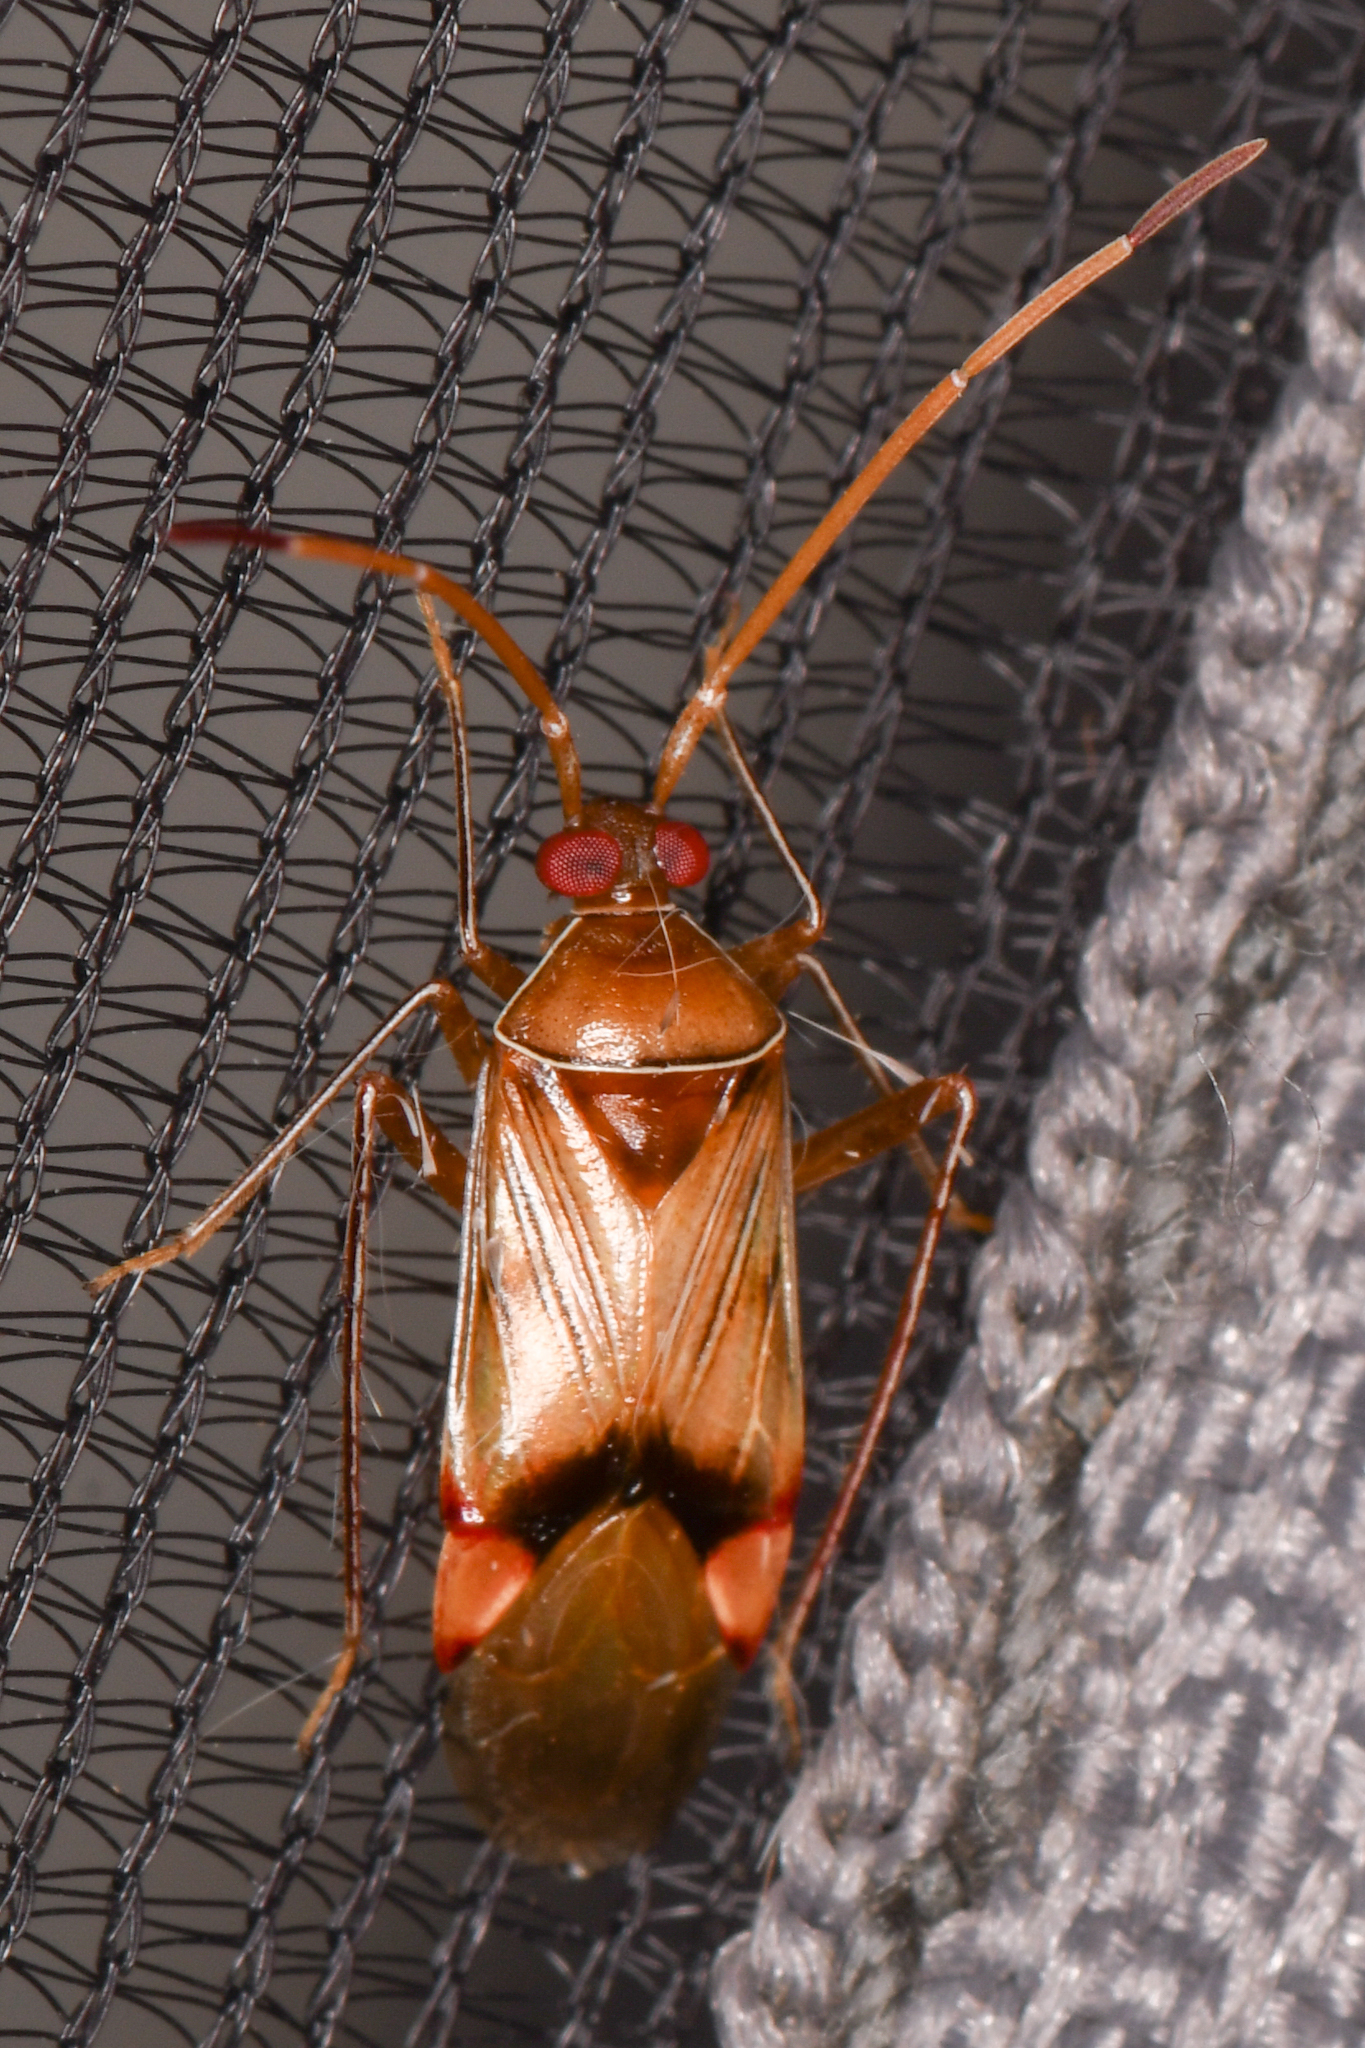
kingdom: Animalia
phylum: Arthropoda
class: Insecta
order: Hemiptera
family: Miridae
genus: Eustictus
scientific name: Eustictus pusillus
